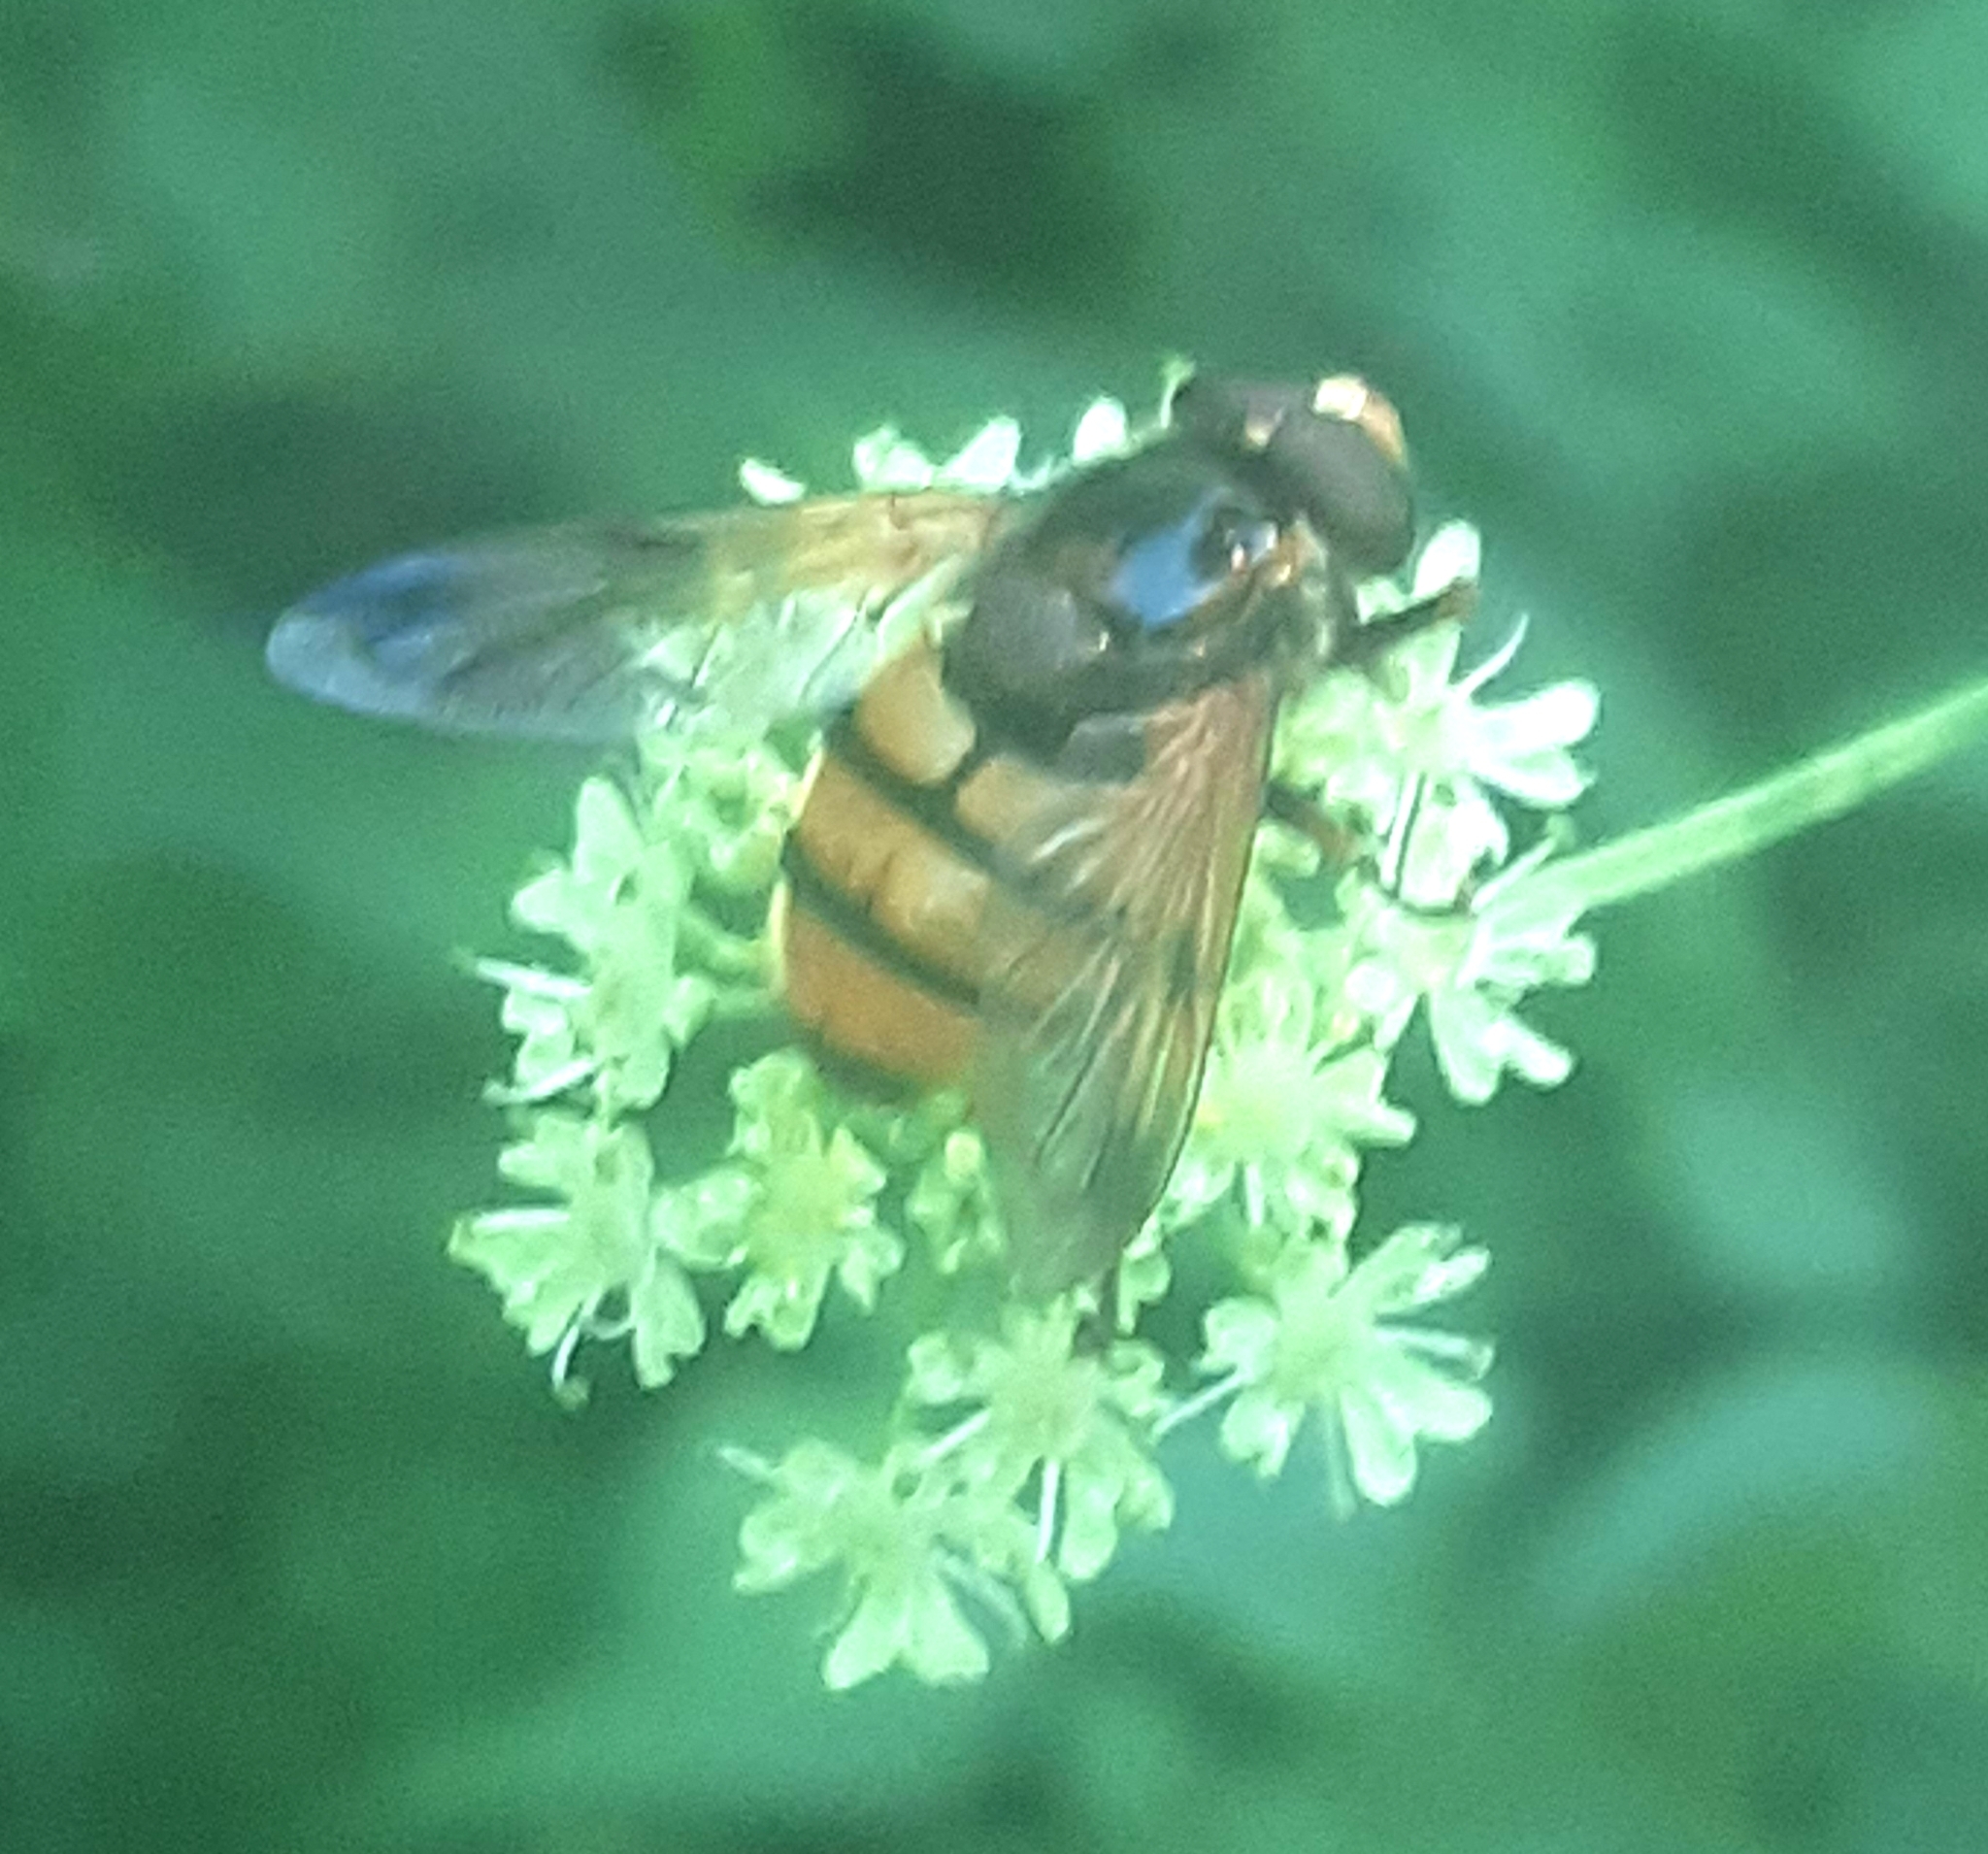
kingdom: Animalia
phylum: Arthropoda
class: Insecta
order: Diptera
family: Syrphidae
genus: Volucella
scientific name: Volucella inanis
